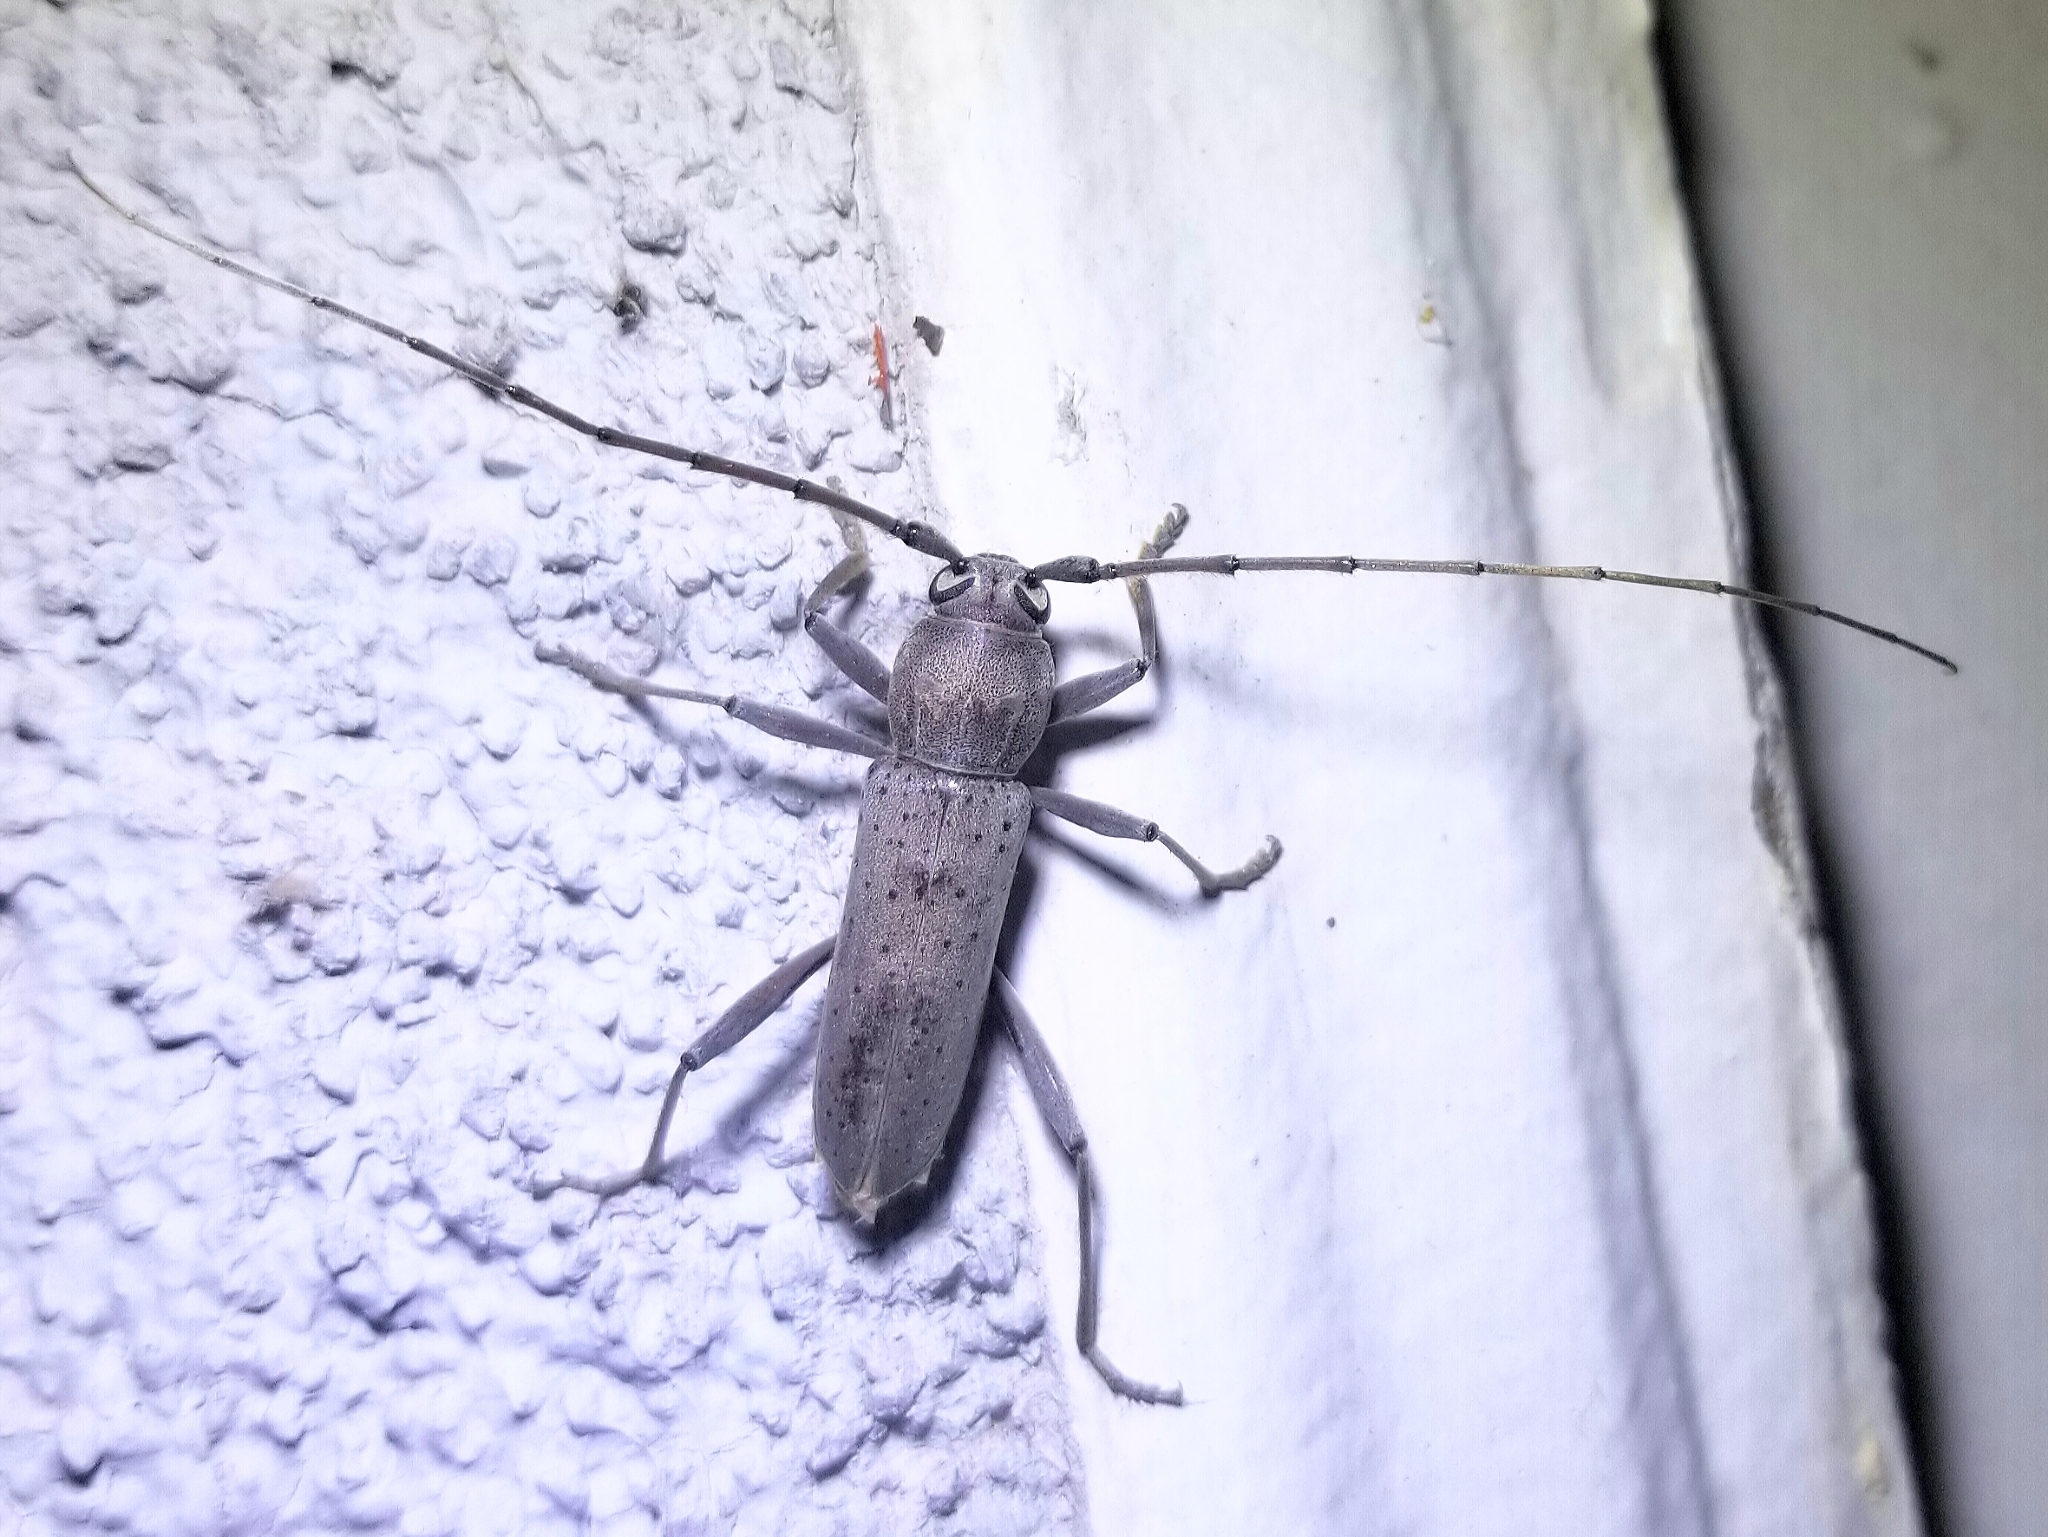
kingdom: Animalia
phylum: Arthropoda
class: Insecta
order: Coleoptera
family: Cerambycidae
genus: Osmidus
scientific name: Osmidus guttatus
